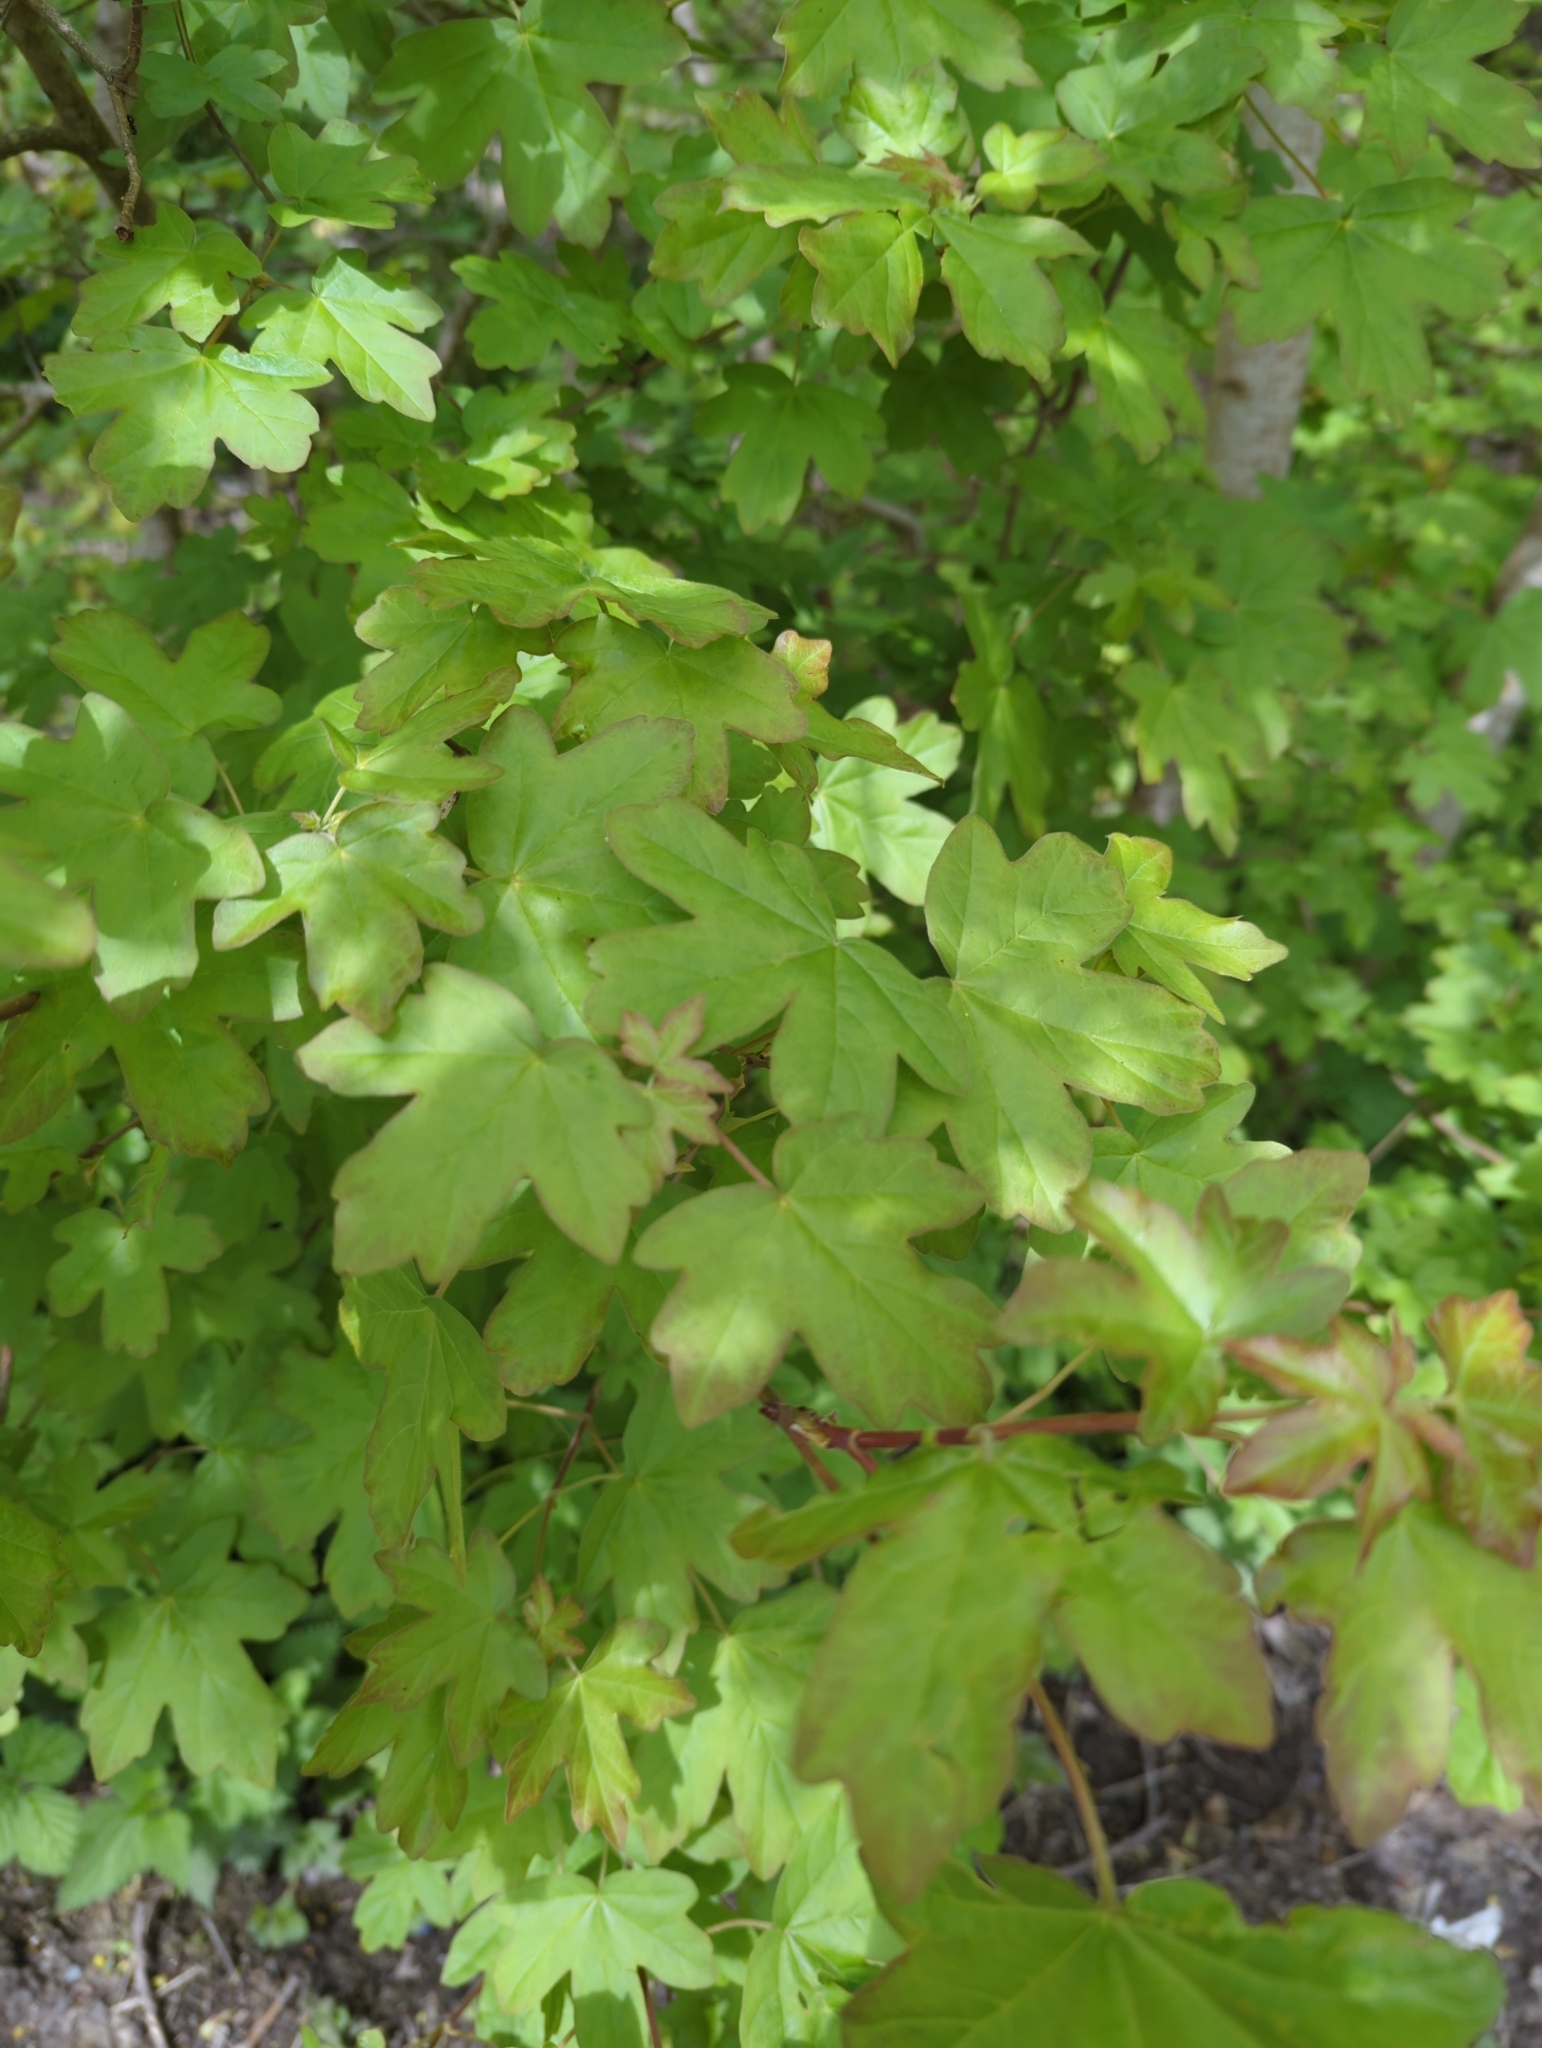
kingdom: Plantae
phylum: Tracheophyta
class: Magnoliopsida
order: Sapindales
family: Sapindaceae
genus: Acer
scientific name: Acer campestre
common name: Field maple
